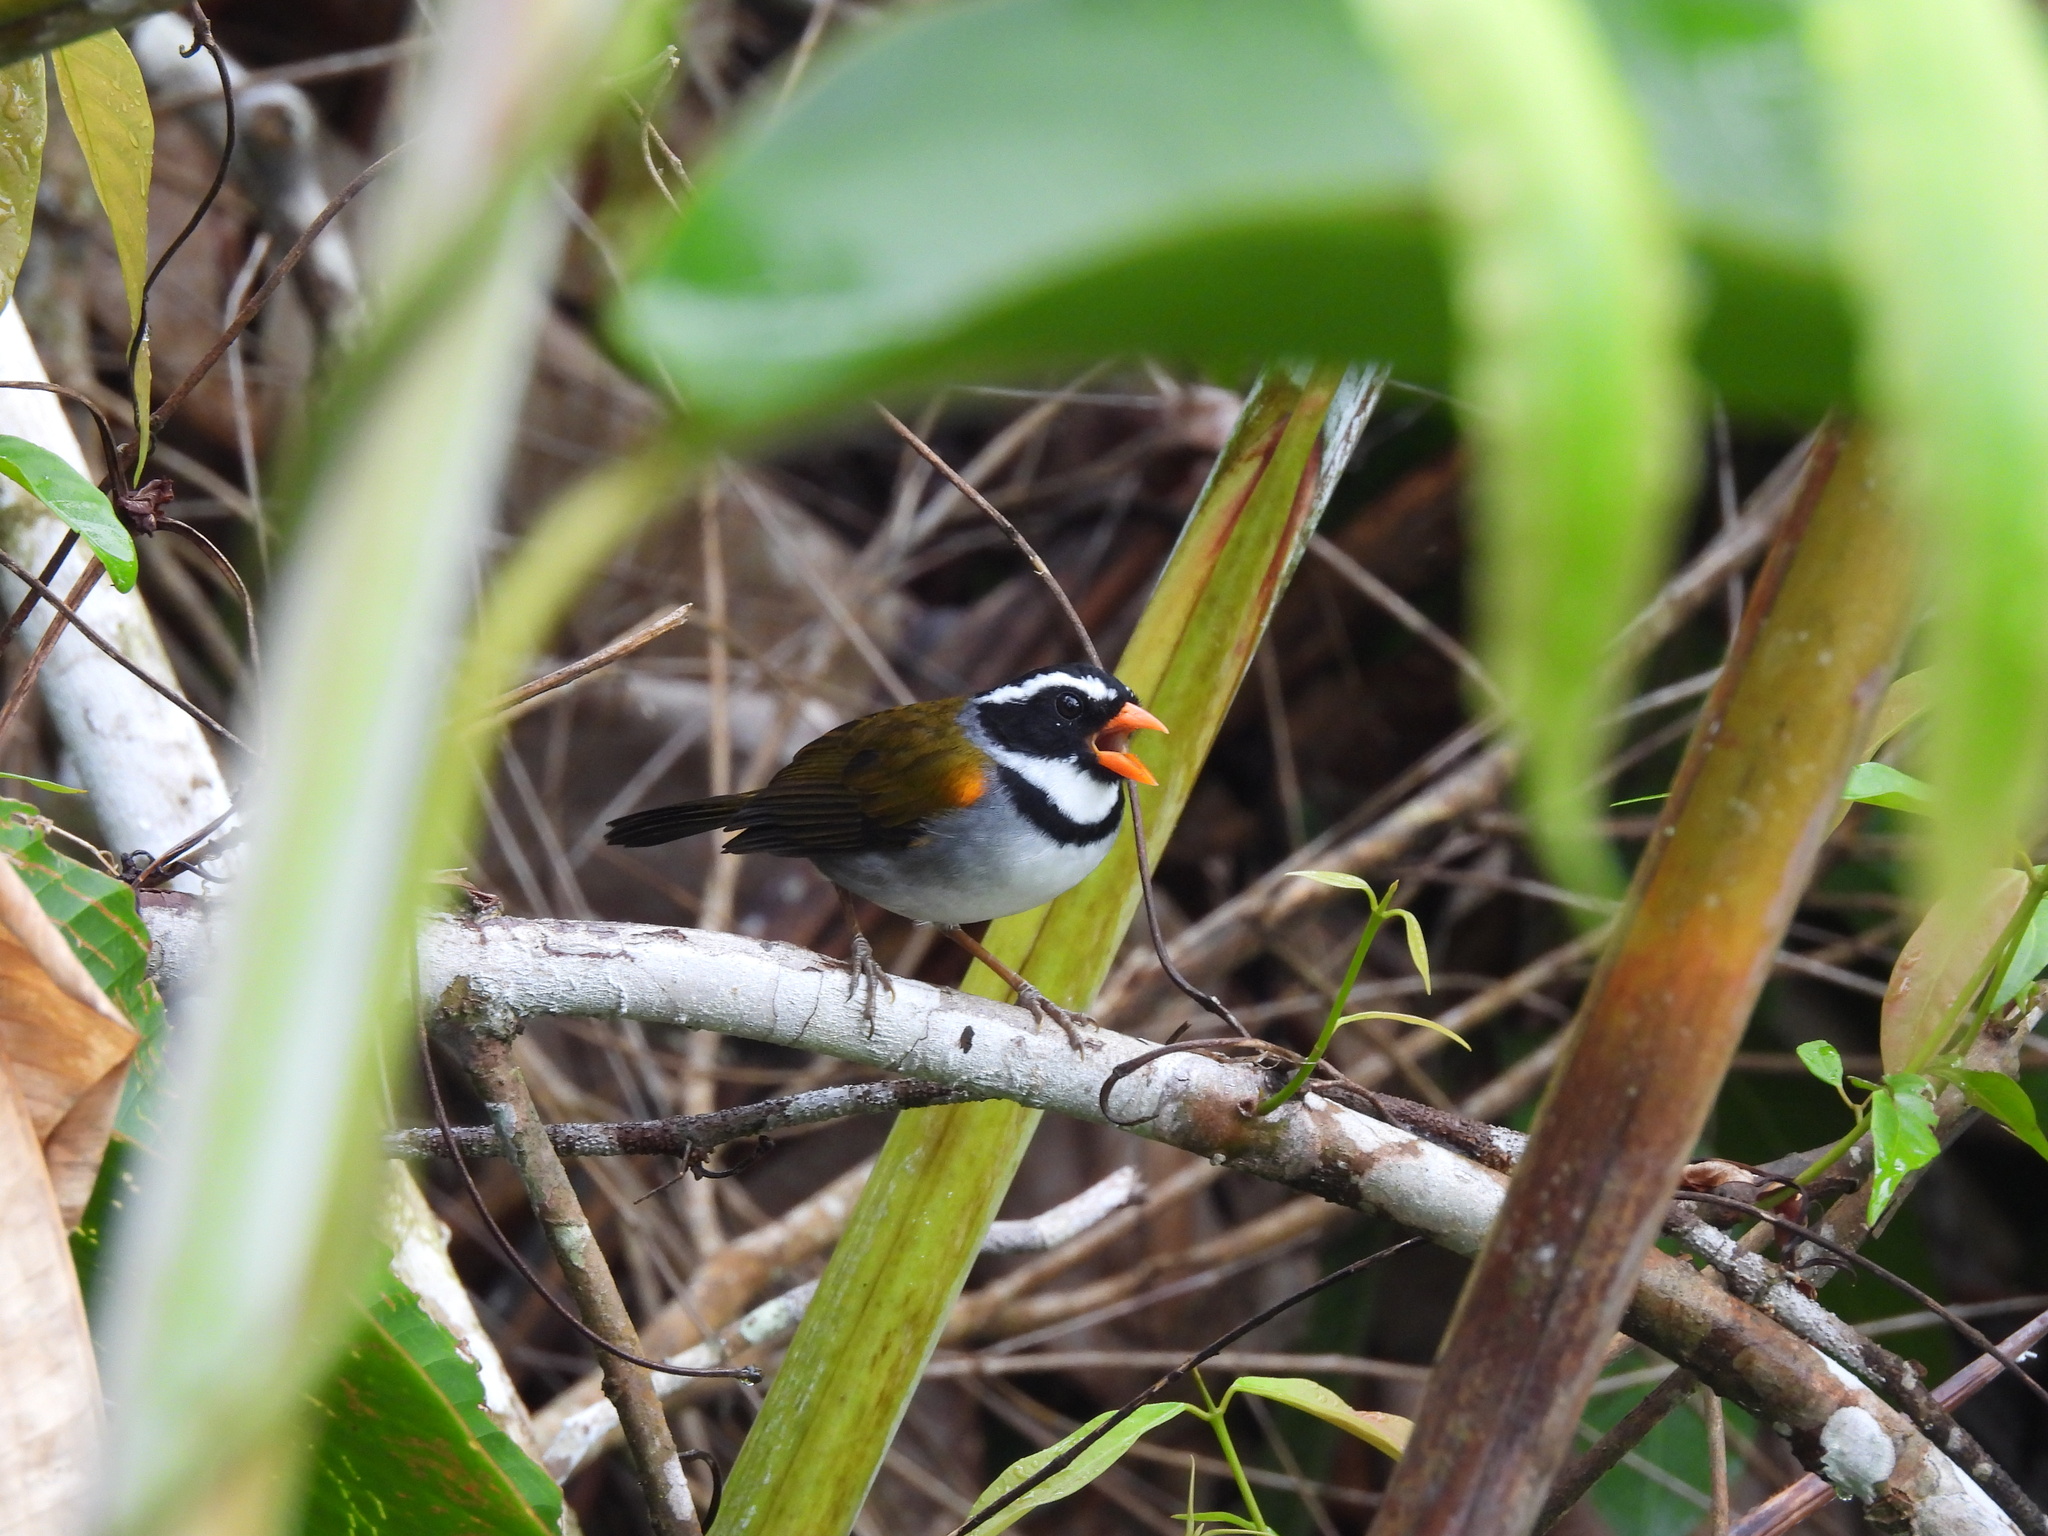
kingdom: Animalia
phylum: Chordata
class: Aves
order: Passeriformes
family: Passerellidae
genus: Arremon
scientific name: Arremon aurantiirostris
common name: Orange-billed sparrow
